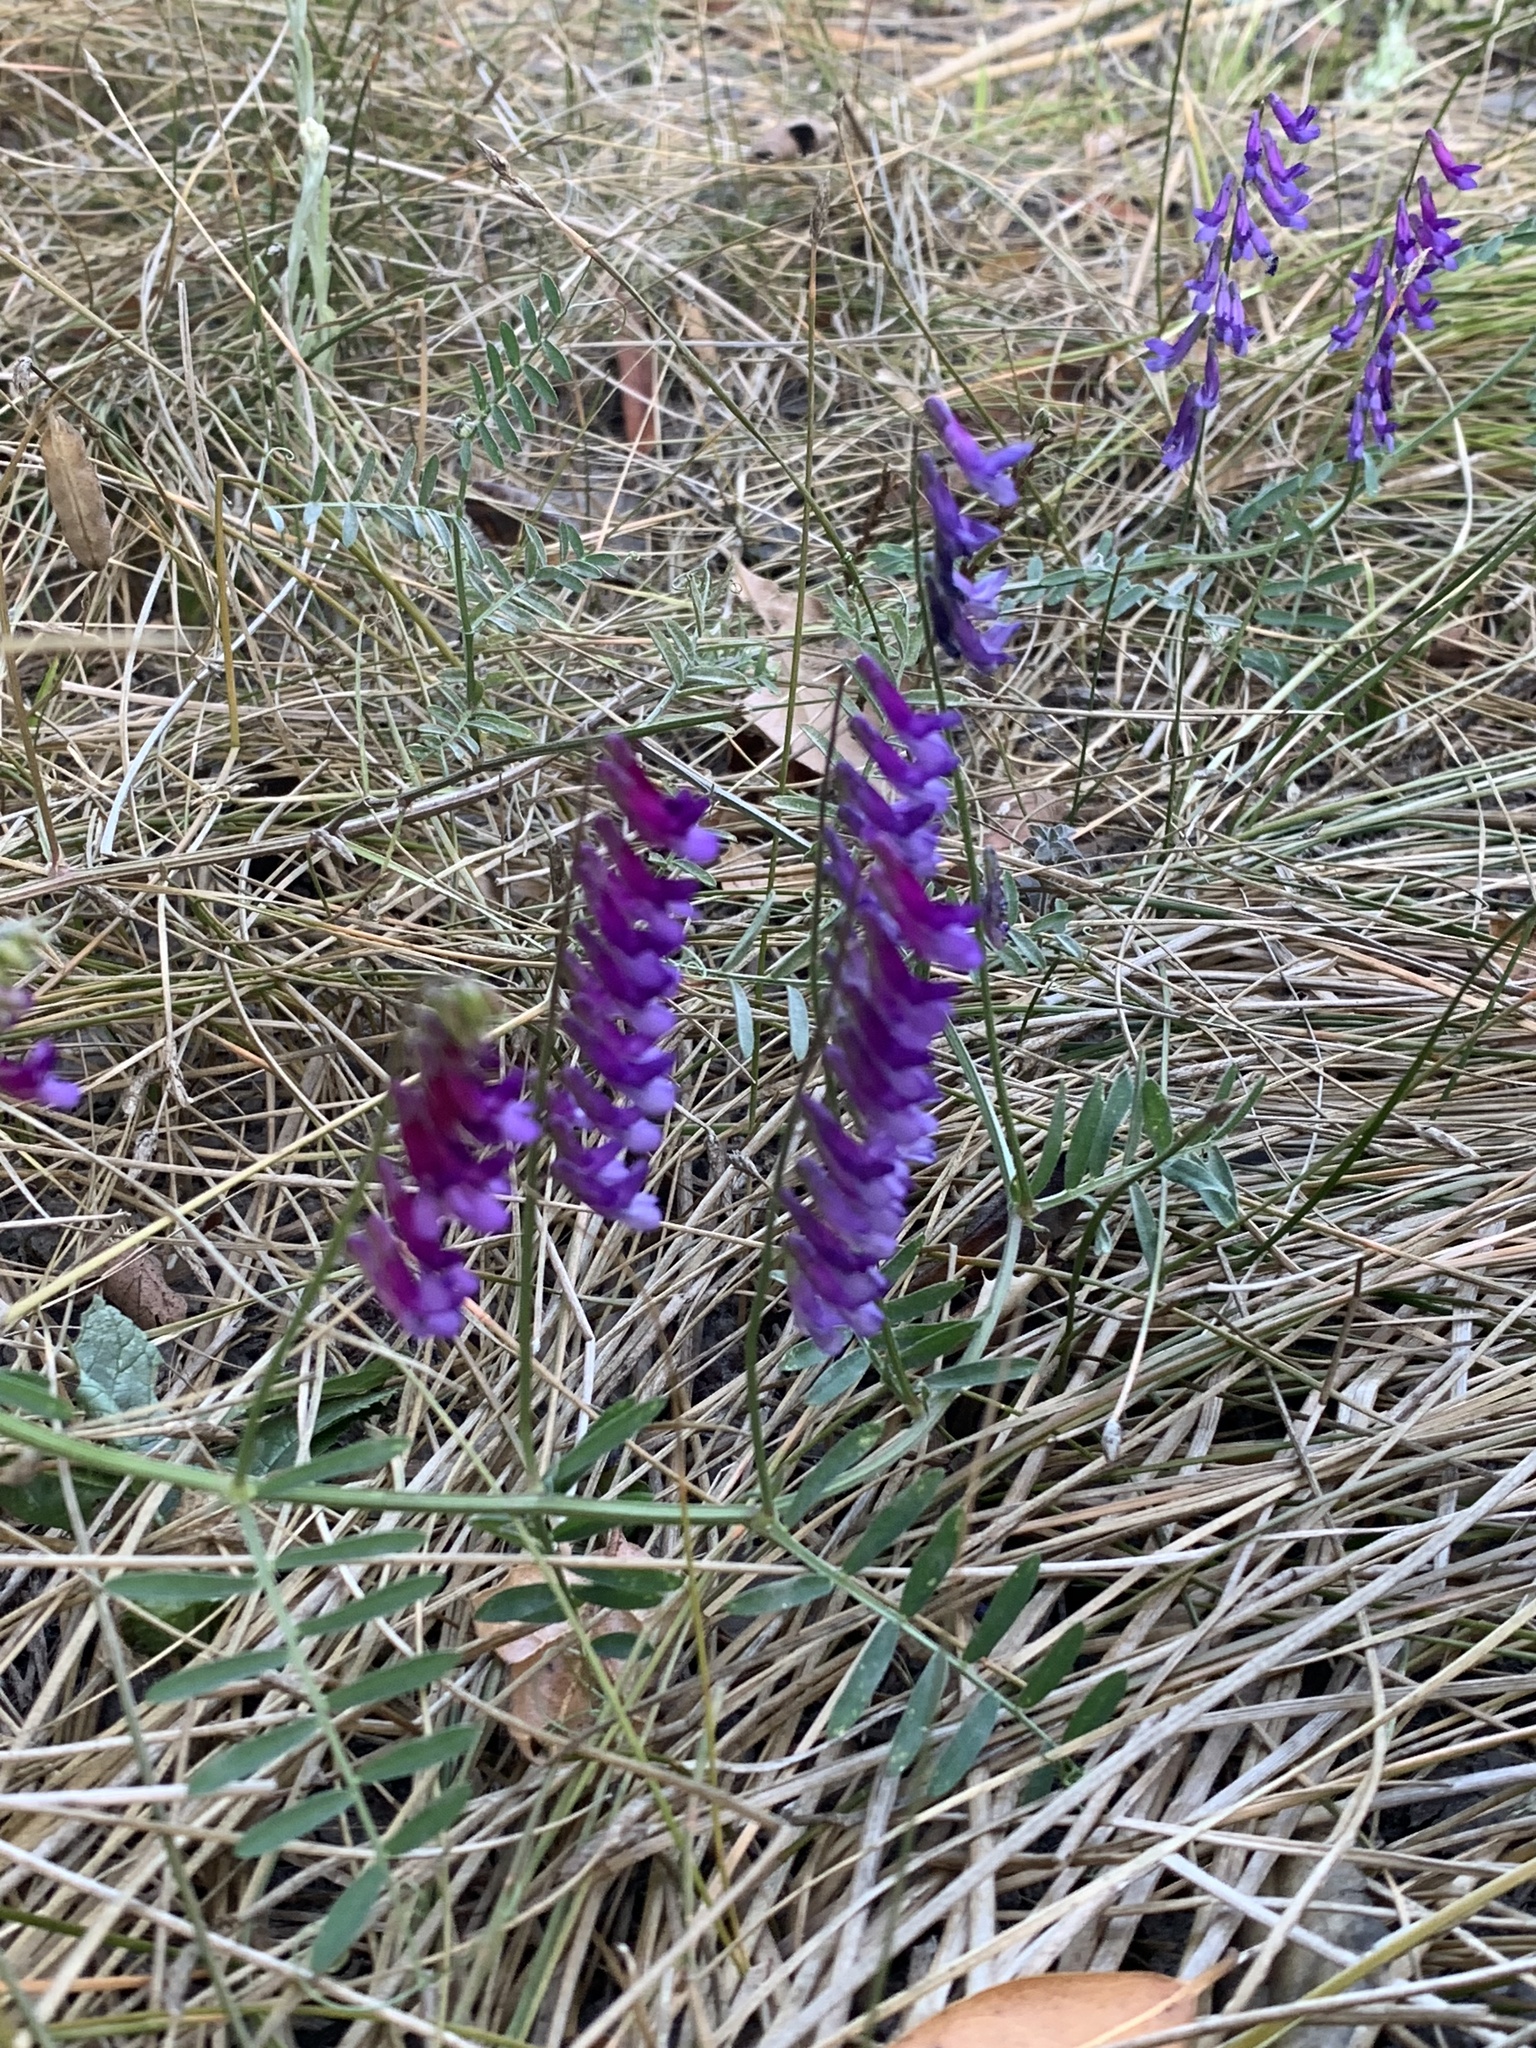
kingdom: Plantae
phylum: Tracheophyta
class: Magnoliopsida
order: Fabales
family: Fabaceae
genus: Vicia
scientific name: Vicia villosa
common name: Fodder vetch
